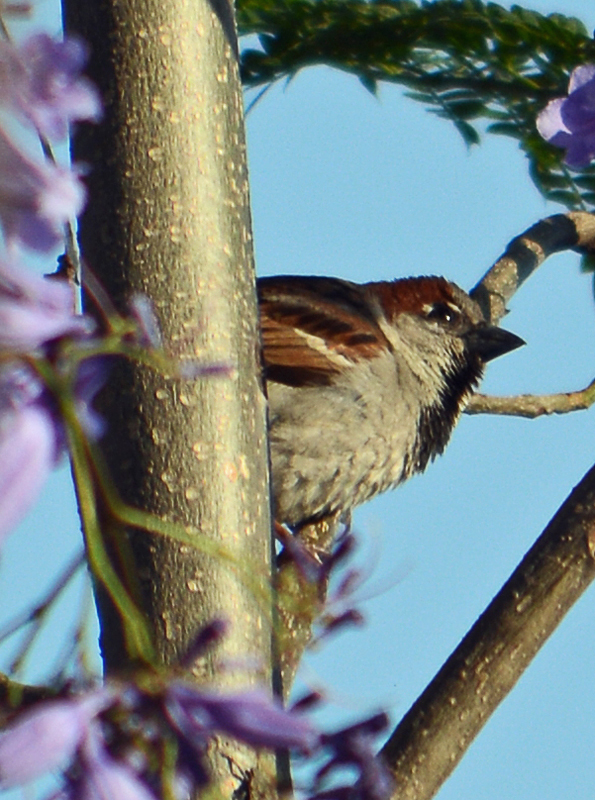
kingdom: Animalia
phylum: Chordata
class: Aves
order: Passeriformes
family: Passeridae
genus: Passer
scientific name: Passer domesticus
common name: House sparrow
